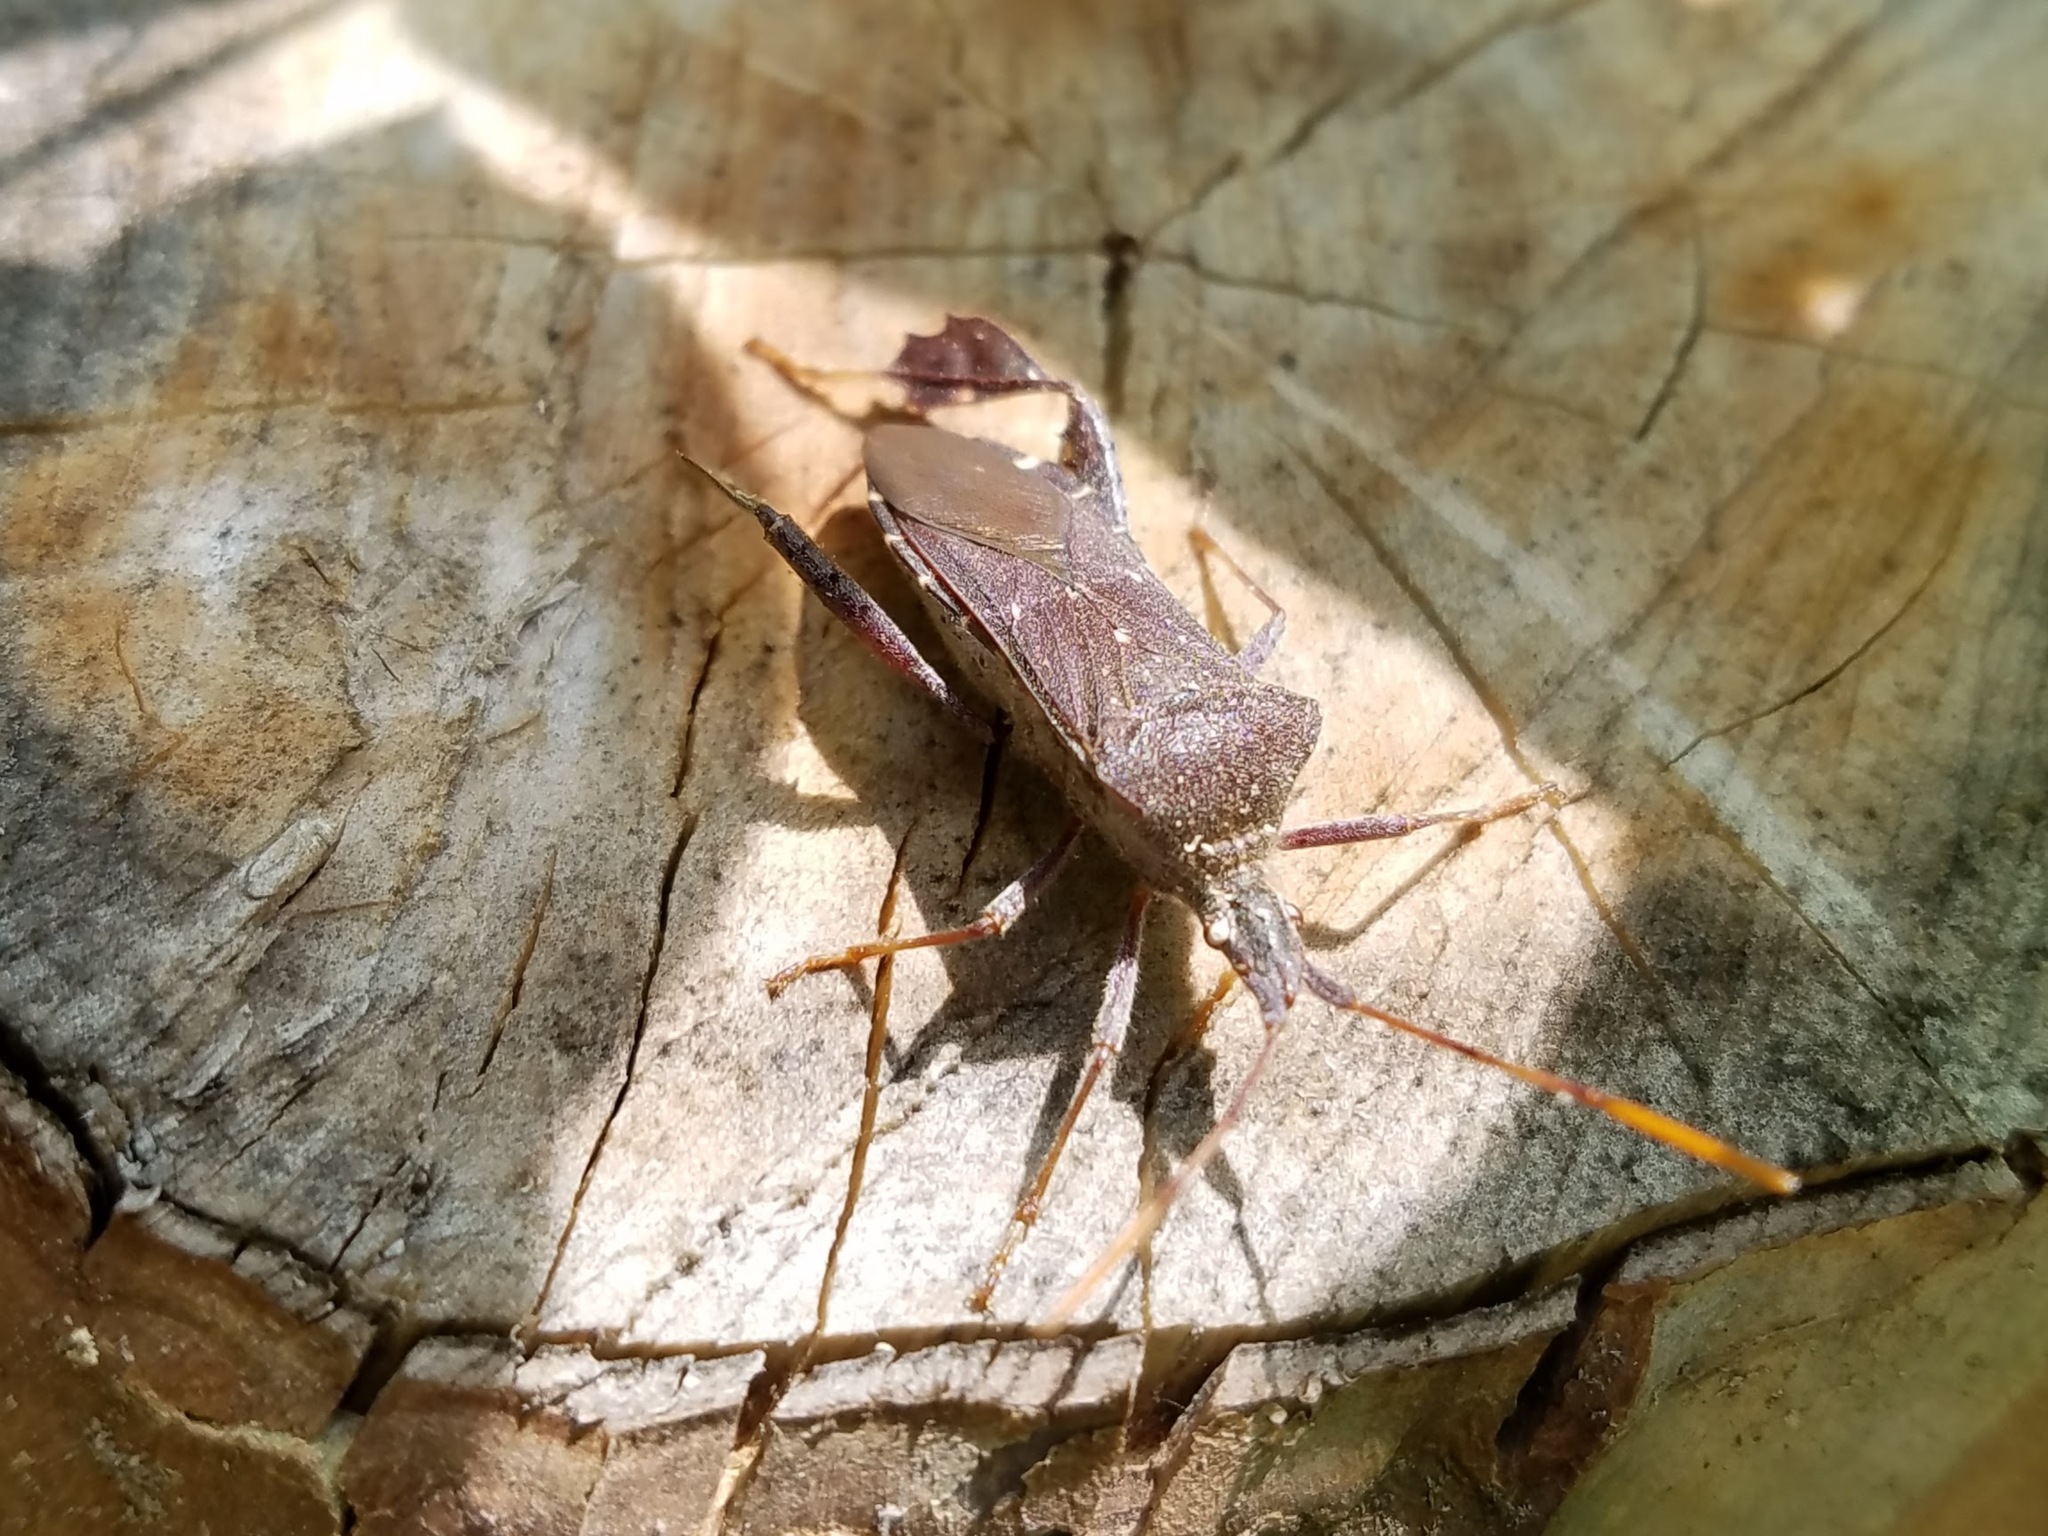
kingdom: Animalia
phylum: Arthropoda
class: Insecta
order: Hemiptera
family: Coreidae
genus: Leptoglossus
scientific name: Leptoglossus oppositus
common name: Northern leaf-footed bug
